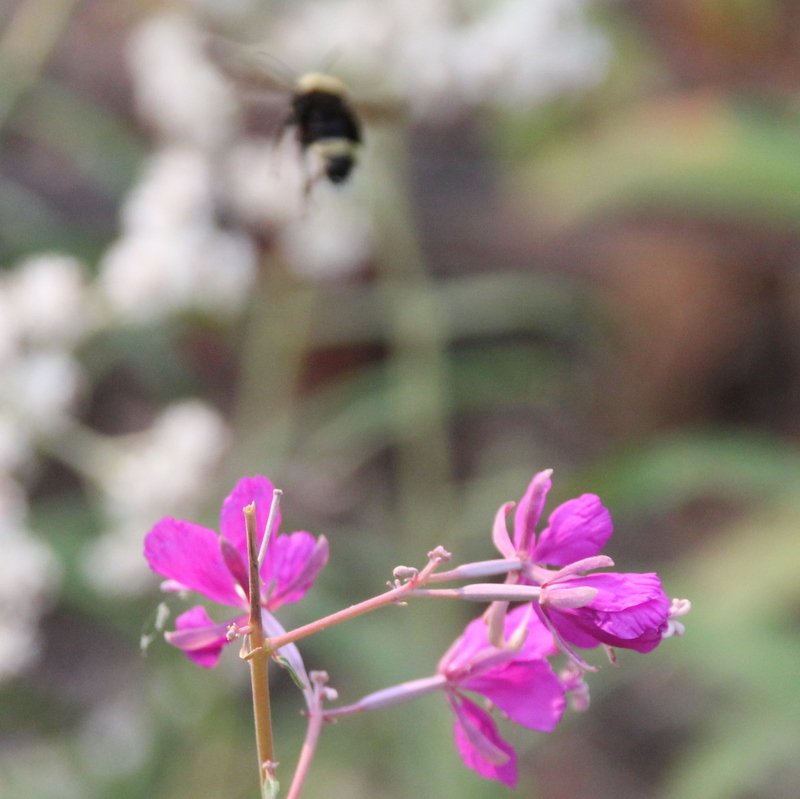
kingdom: Animalia
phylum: Arthropoda
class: Insecta
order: Hymenoptera
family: Apidae
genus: Pyrobombus
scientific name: Pyrobombus
